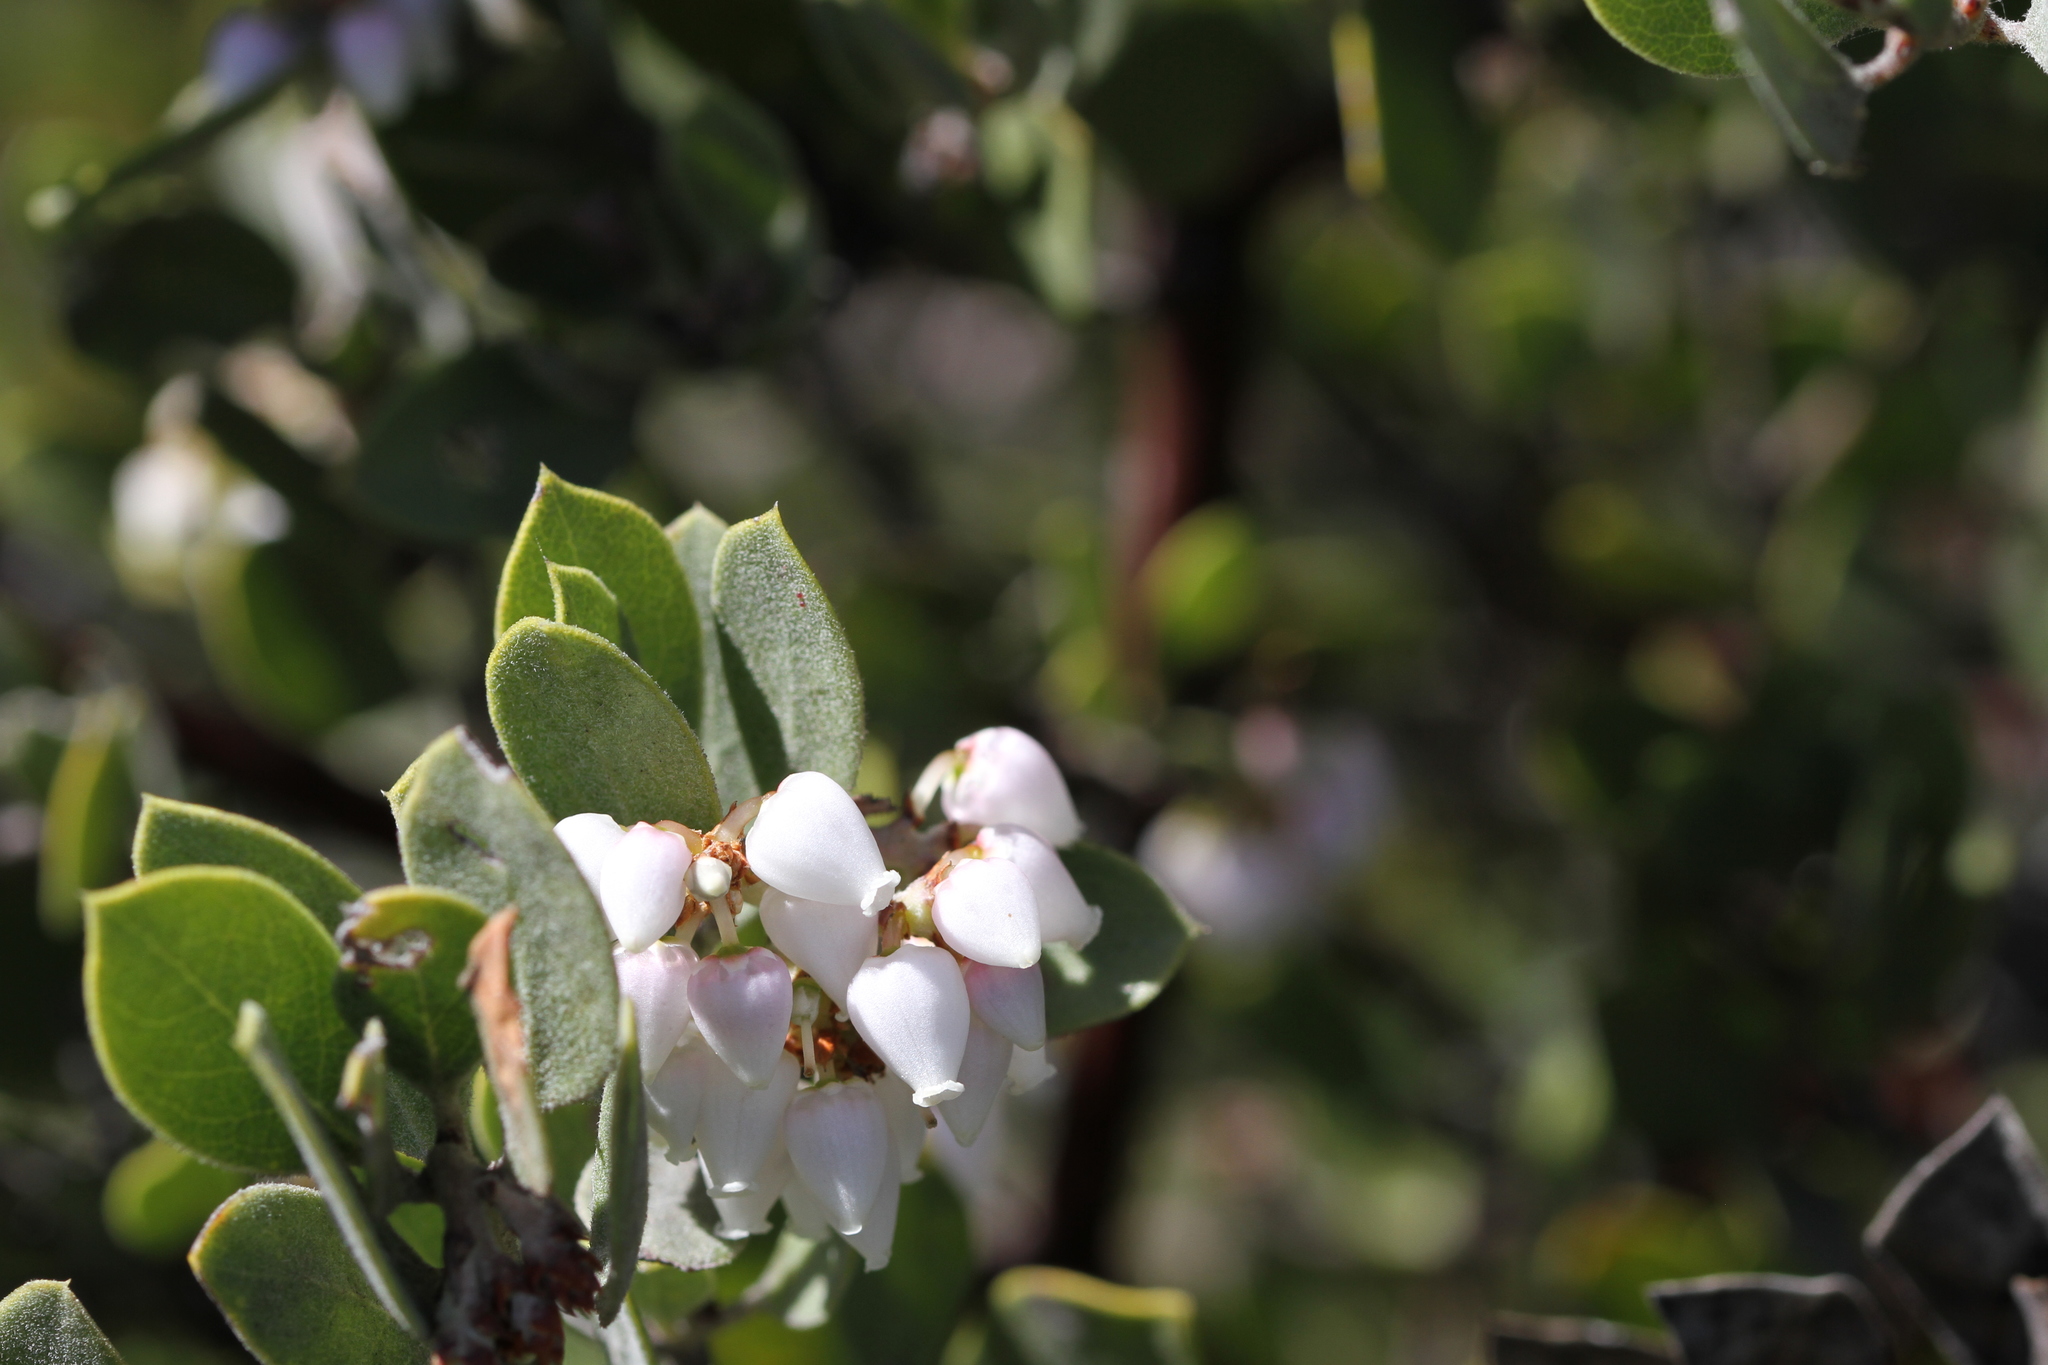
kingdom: Plantae
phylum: Tracheophyta
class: Magnoliopsida
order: Ericales
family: Ericaceae
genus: Arctostaphylos
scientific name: Arctostaphylos montana
